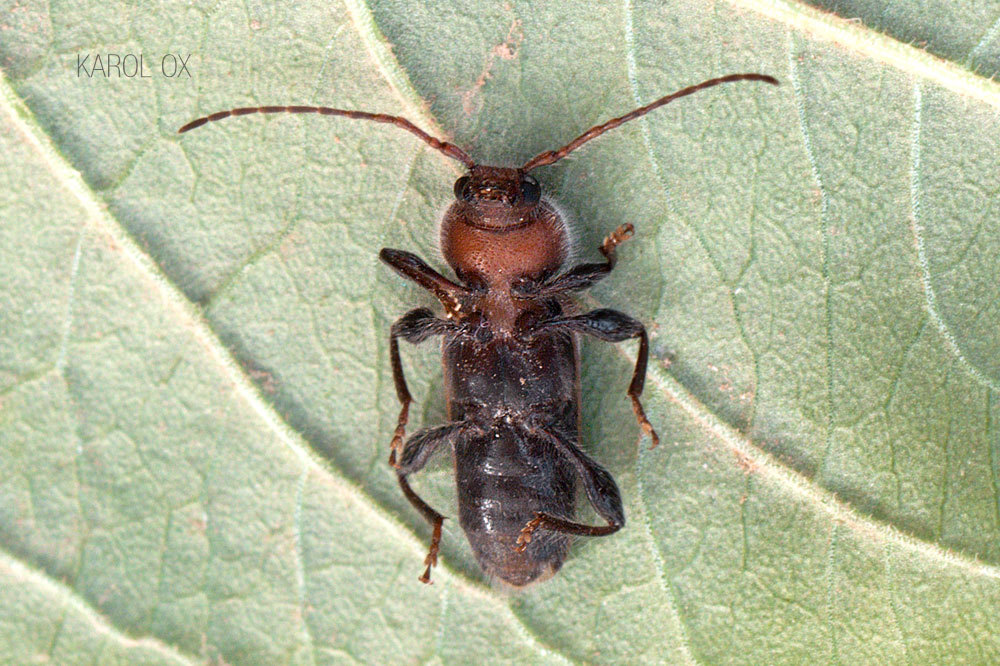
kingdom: Animalia
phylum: Arthropoda
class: Insecta
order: Coleoptera
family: Cerambycidae
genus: Hylotrupes
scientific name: Hylotrupes bajulus
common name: Old house borer
